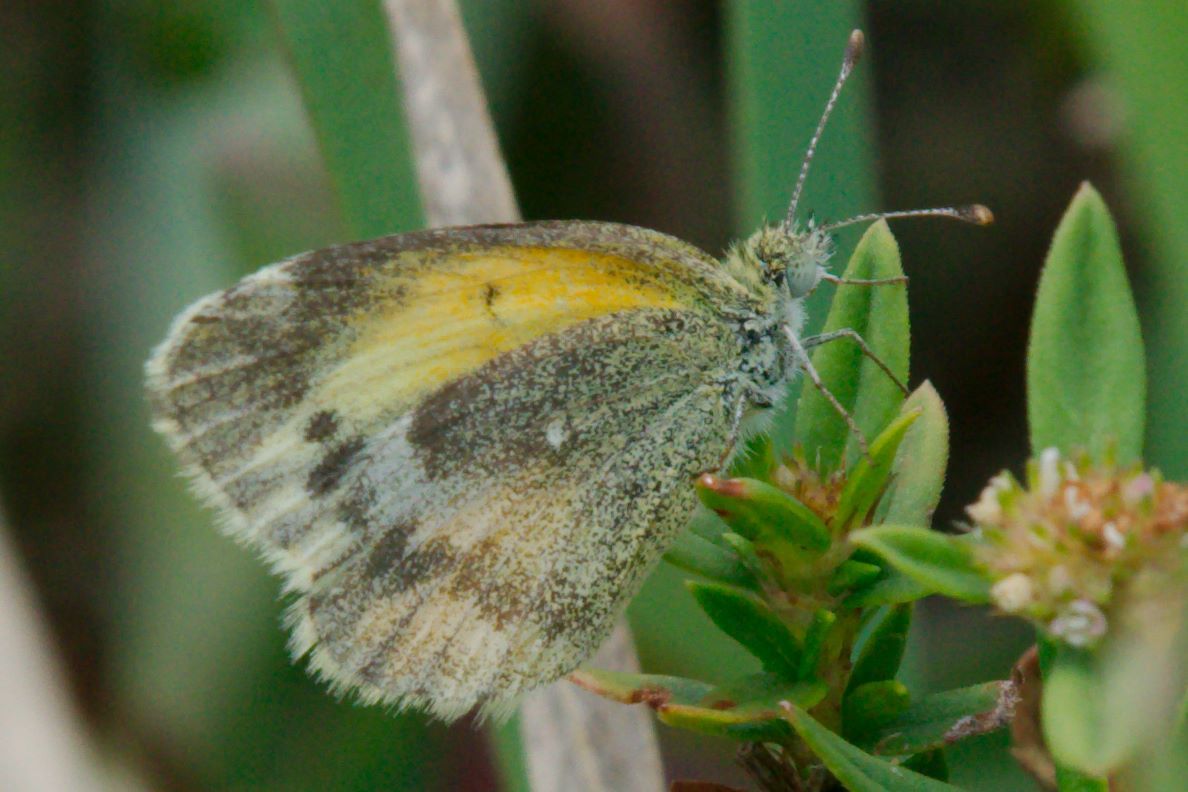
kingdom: Animalia
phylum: Arthropoda
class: Insecta
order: Lepidoptera
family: Pieridae
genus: Nathalis
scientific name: Nathalis iole
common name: Dainty sulphur
